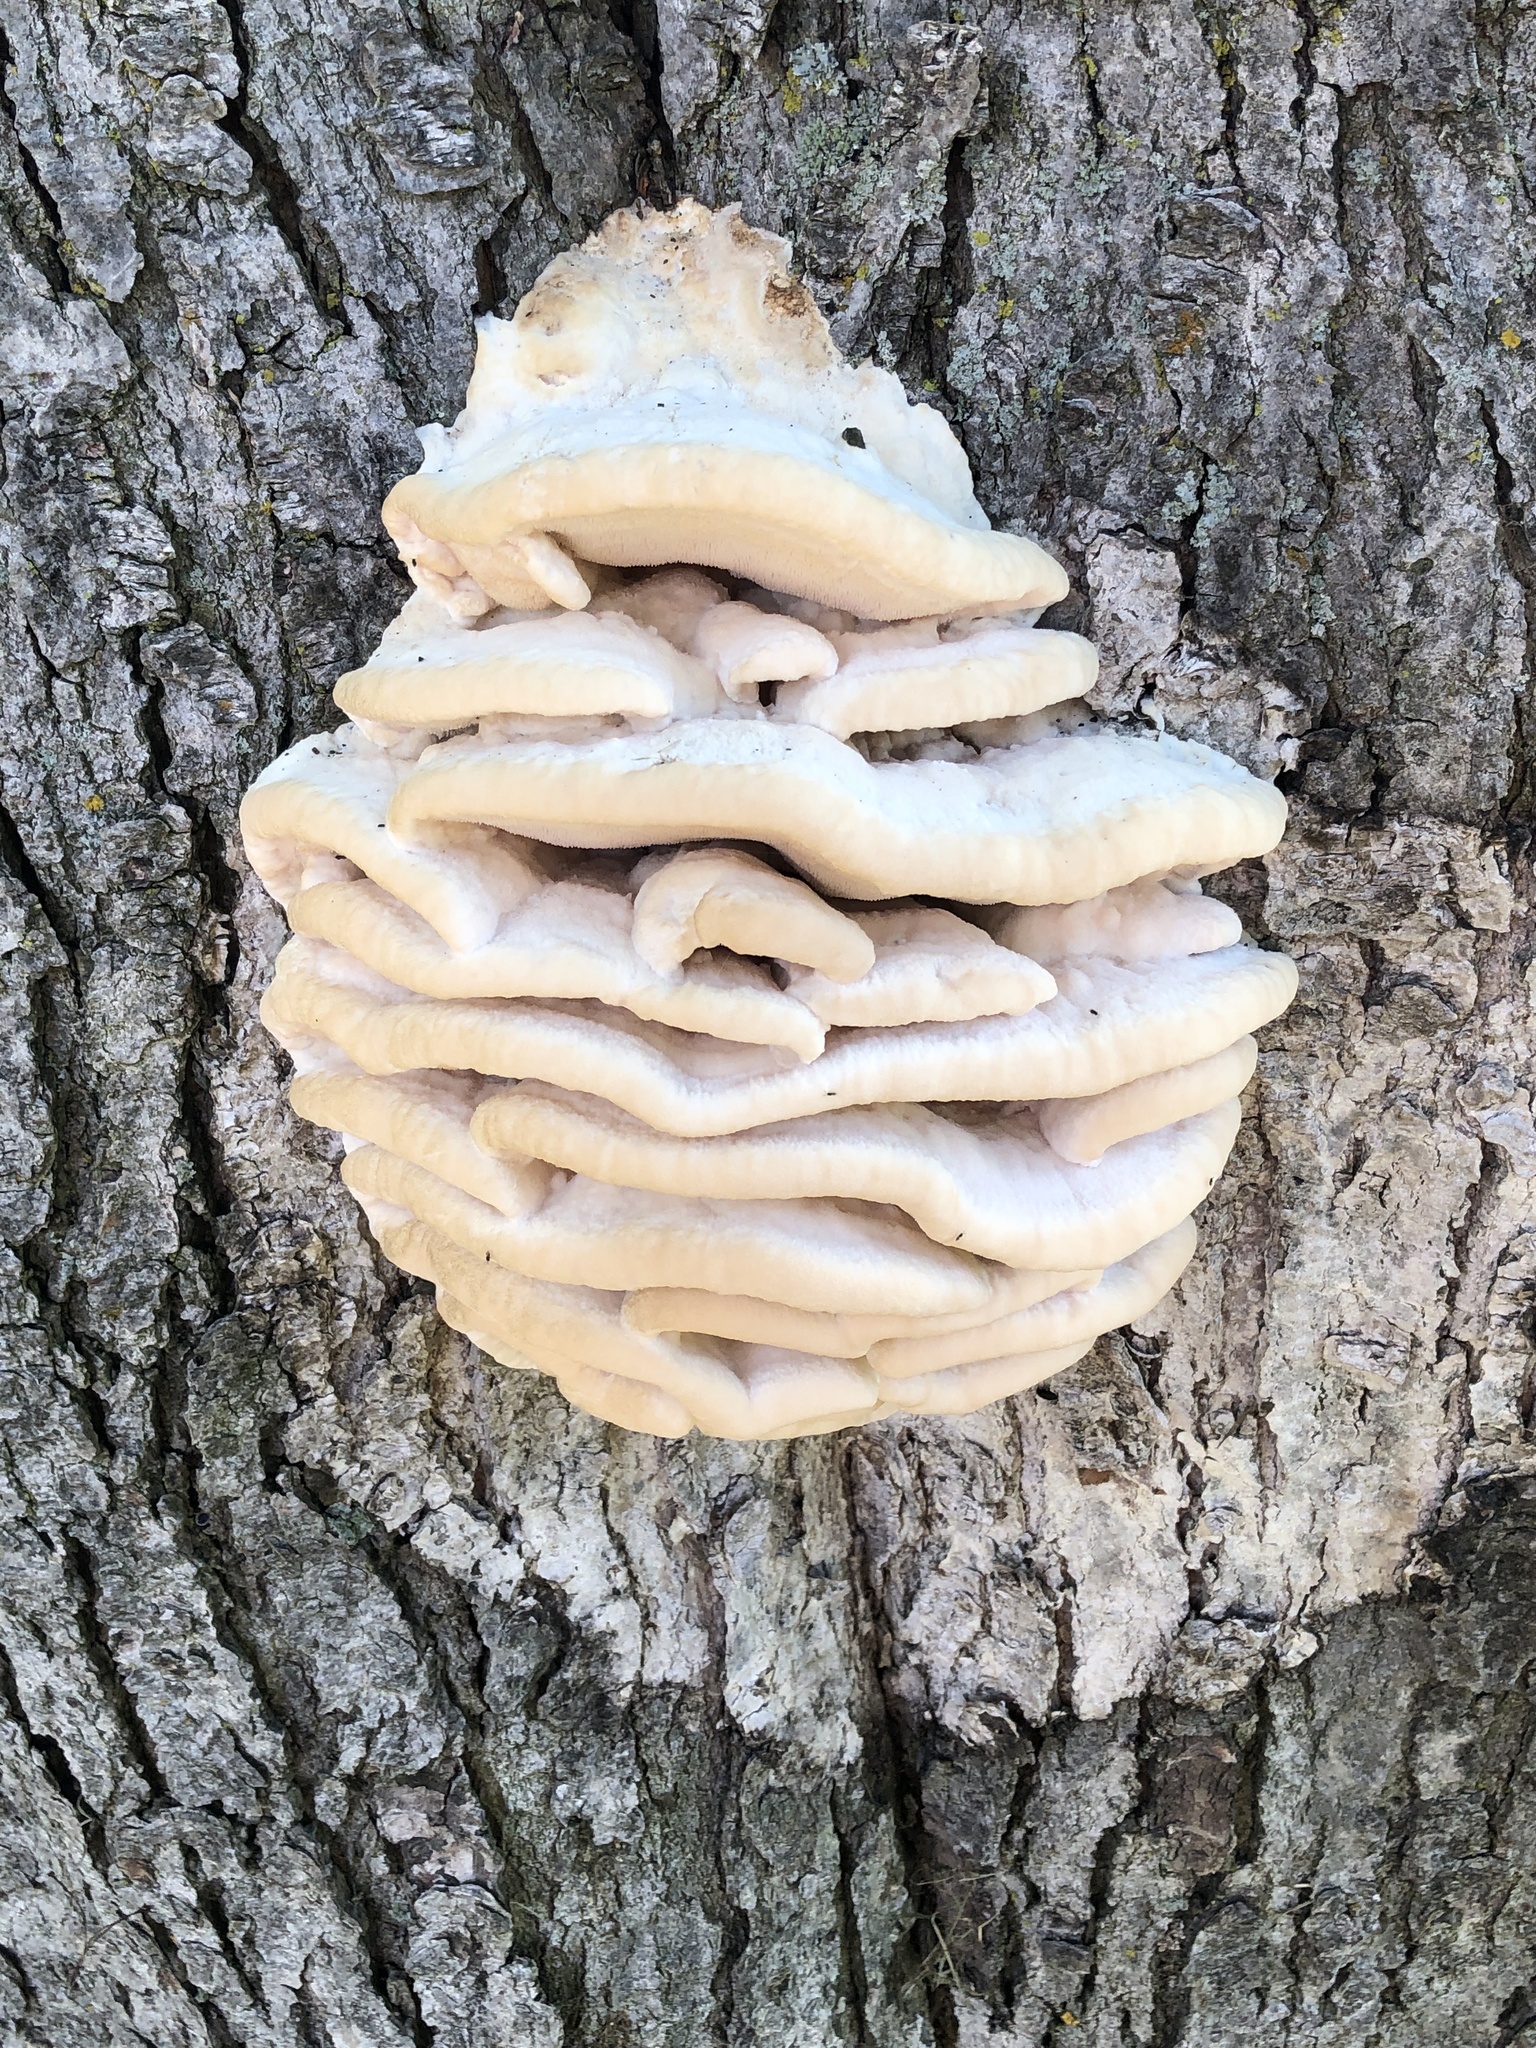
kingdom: Fungi
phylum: Basidiomycota
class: Agaricomycetes
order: Polyporales
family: Meruliaceae
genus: Climacodon
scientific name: Climacodon septentrionalis
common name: Northern tooth
